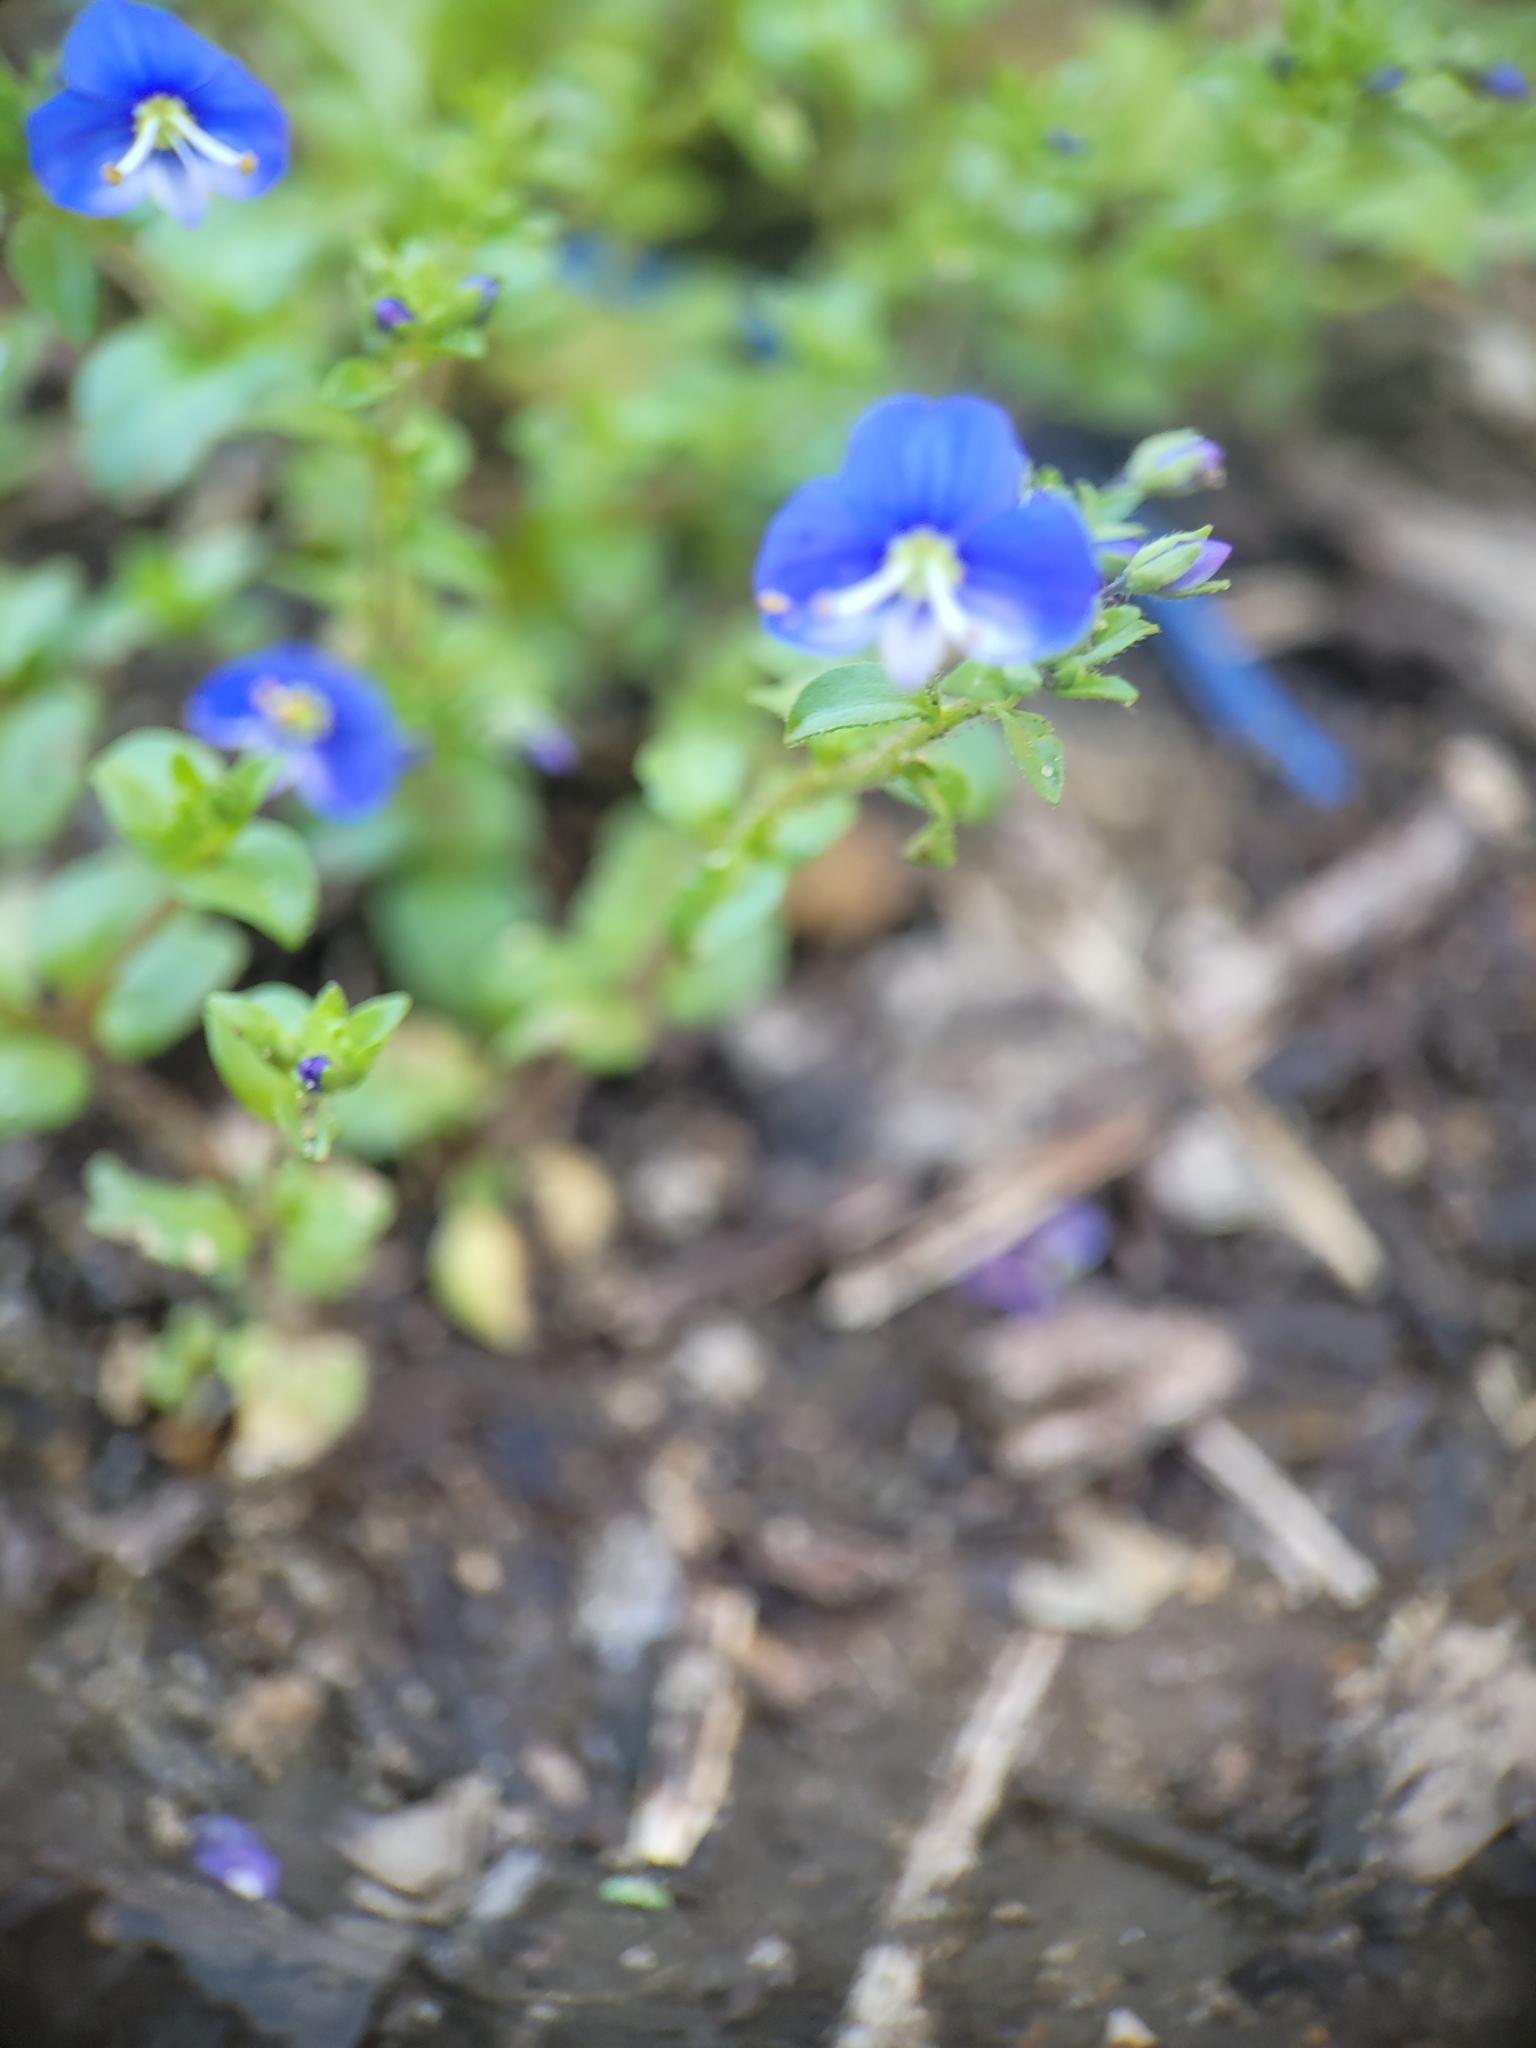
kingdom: Plantae
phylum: Tracheophyta
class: Magnoliopsida
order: Lamiales
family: Plantaginaceae
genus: Veronica
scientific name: Veronica syriaca
